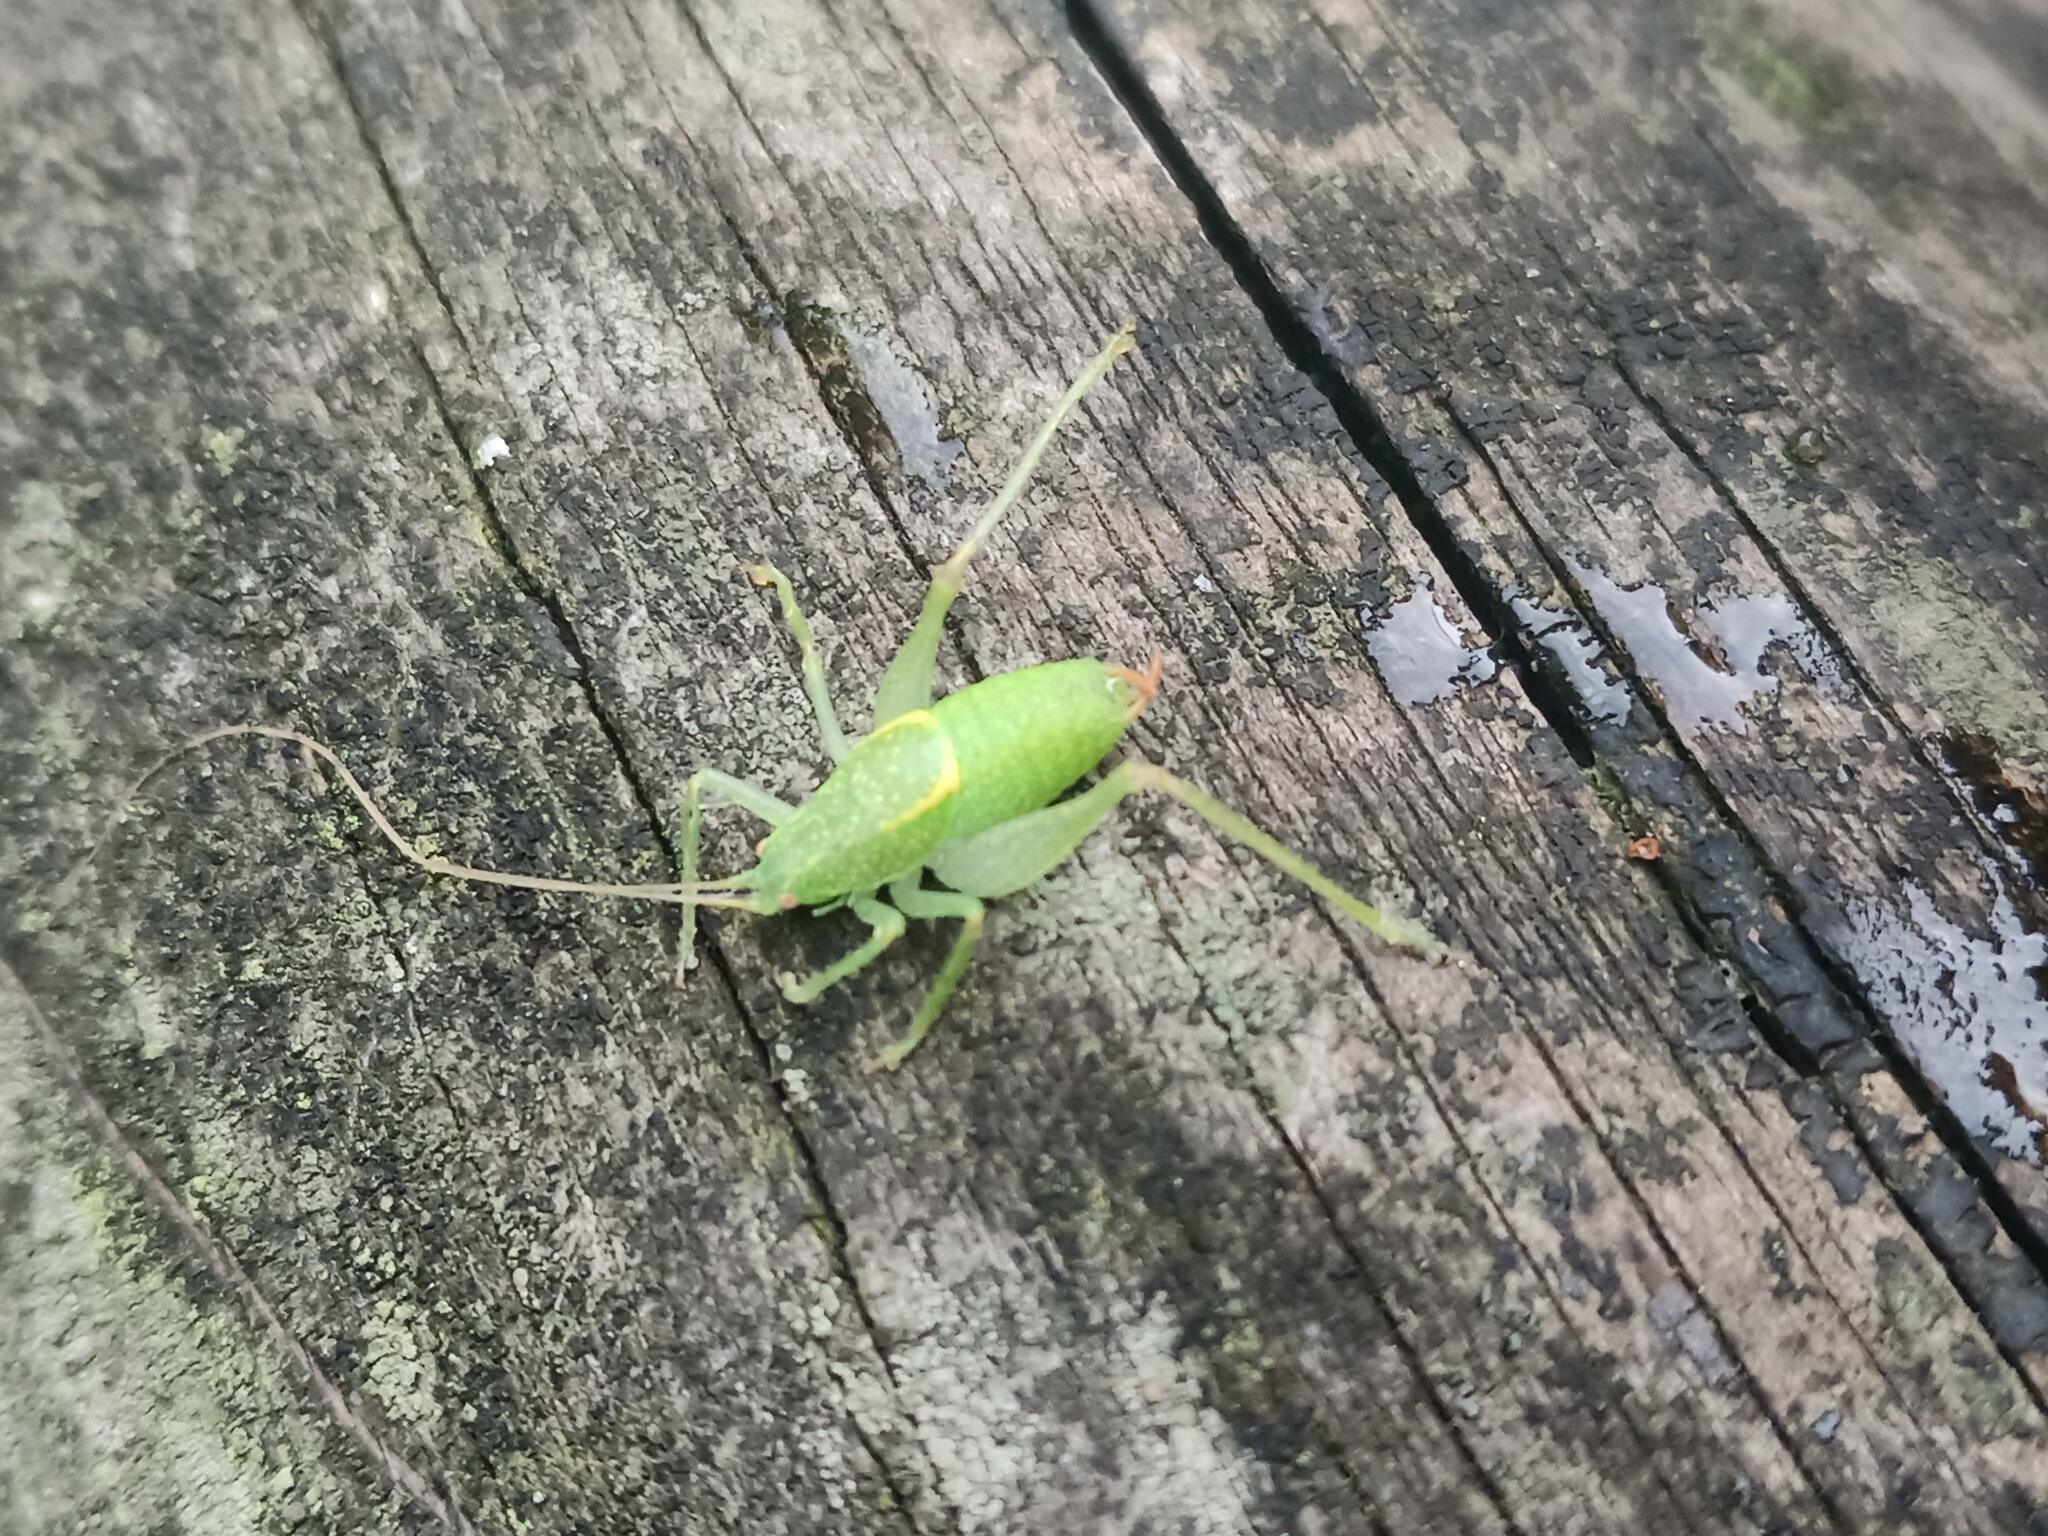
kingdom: Animalia
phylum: Arthropoda
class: Insecta
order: Orthoptera
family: Tettigoniidae
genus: Cyrtaspis
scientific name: Cyrtaspis scutata
